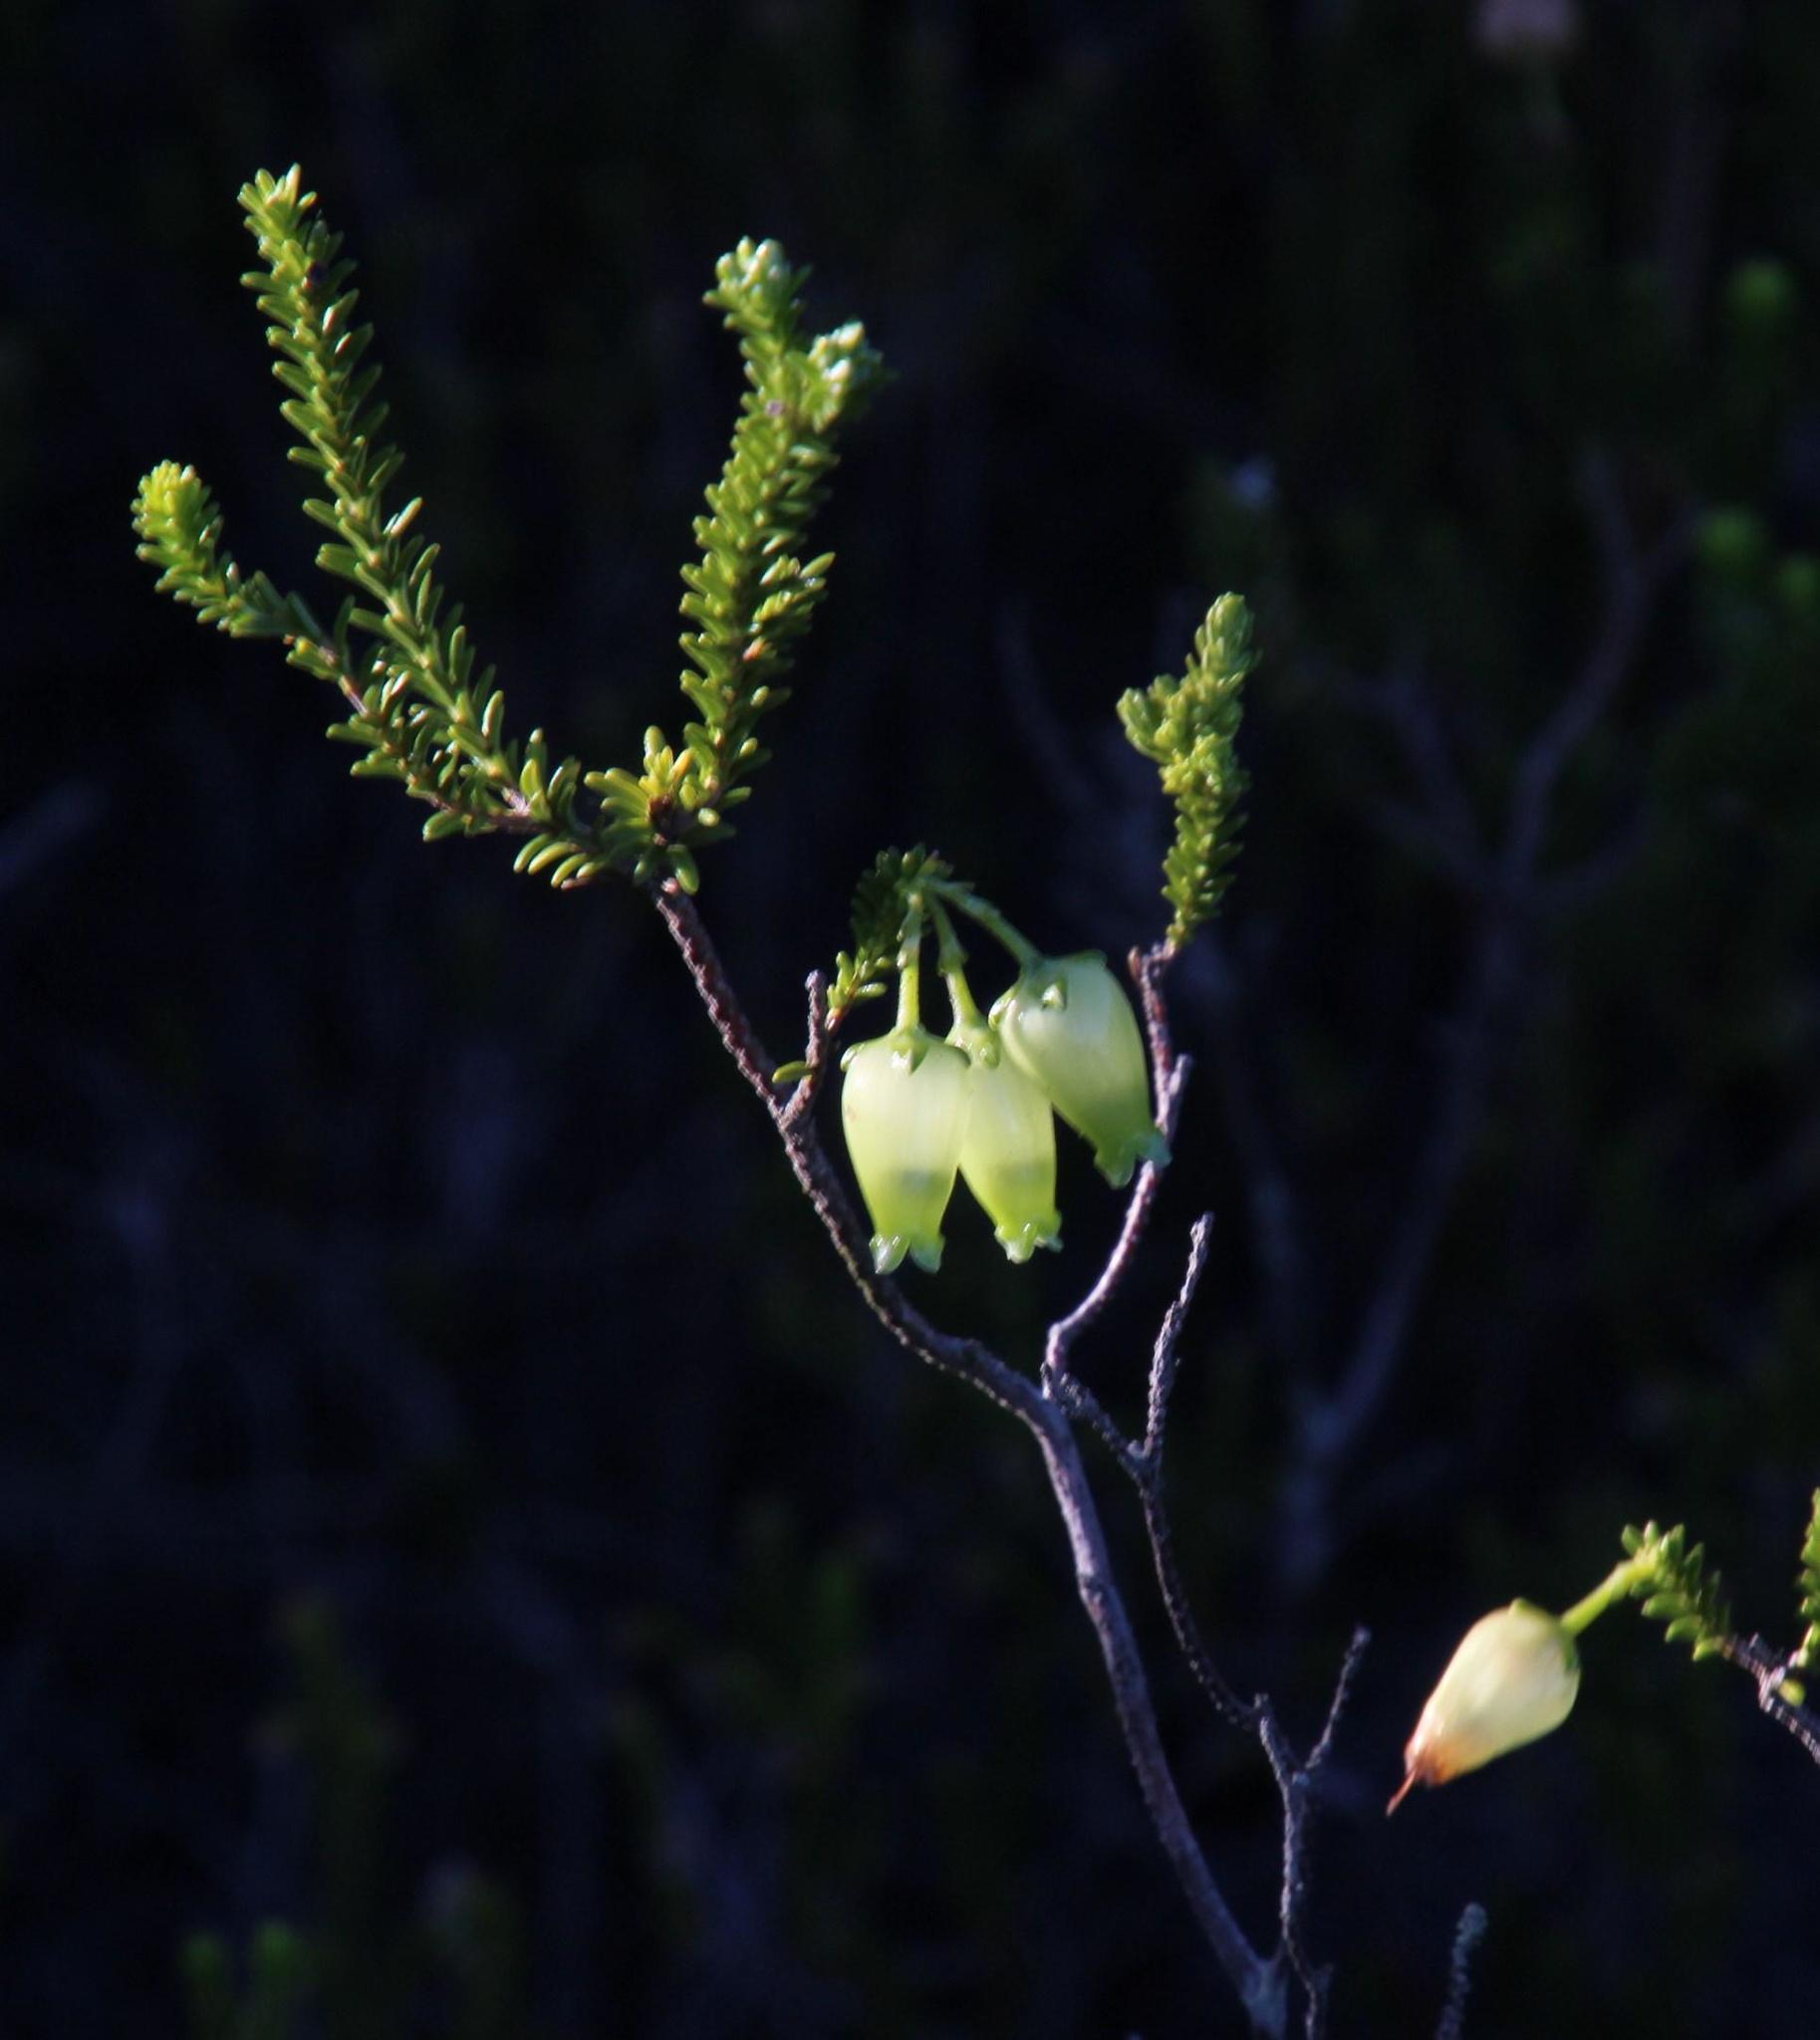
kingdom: Plantae
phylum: Tracheophyta
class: Magnoliopsida
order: Ericales
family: Ericaceae
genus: Erica
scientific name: Erica urna-viridis
